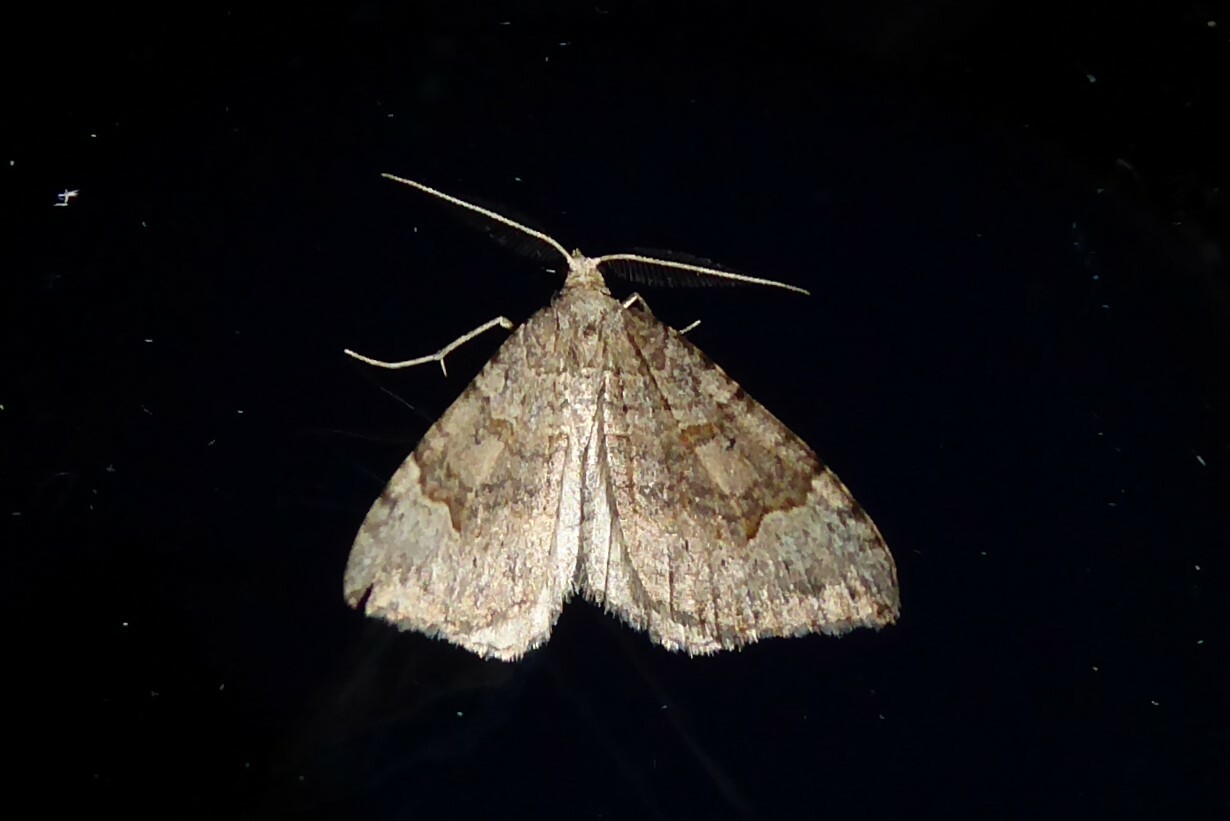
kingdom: Animalia
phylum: Arthropoda
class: Insecta
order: Lepidoptera
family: Geometridae
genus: Epyaxa
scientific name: Epyaxa rosearia
